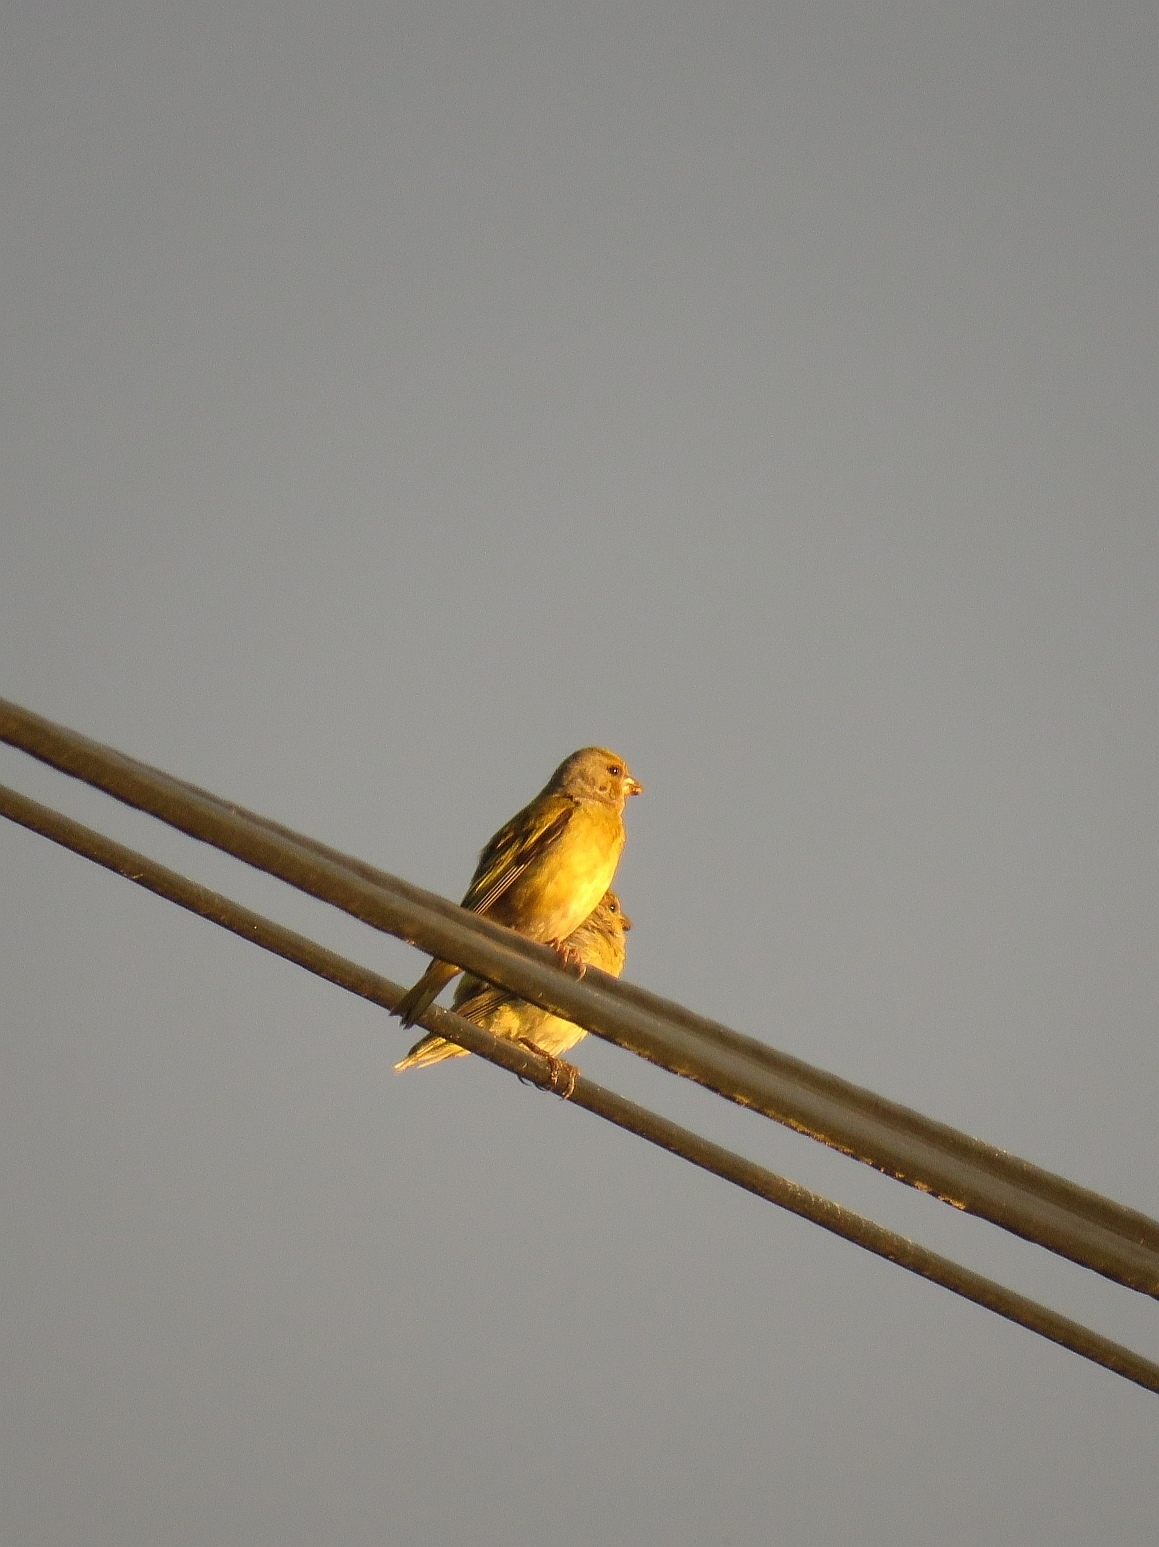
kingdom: Animalia
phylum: Chordata
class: Aves
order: Passeriformes
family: Fringillidae
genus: Serinus
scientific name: Serinus canicollis
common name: Cape canary
